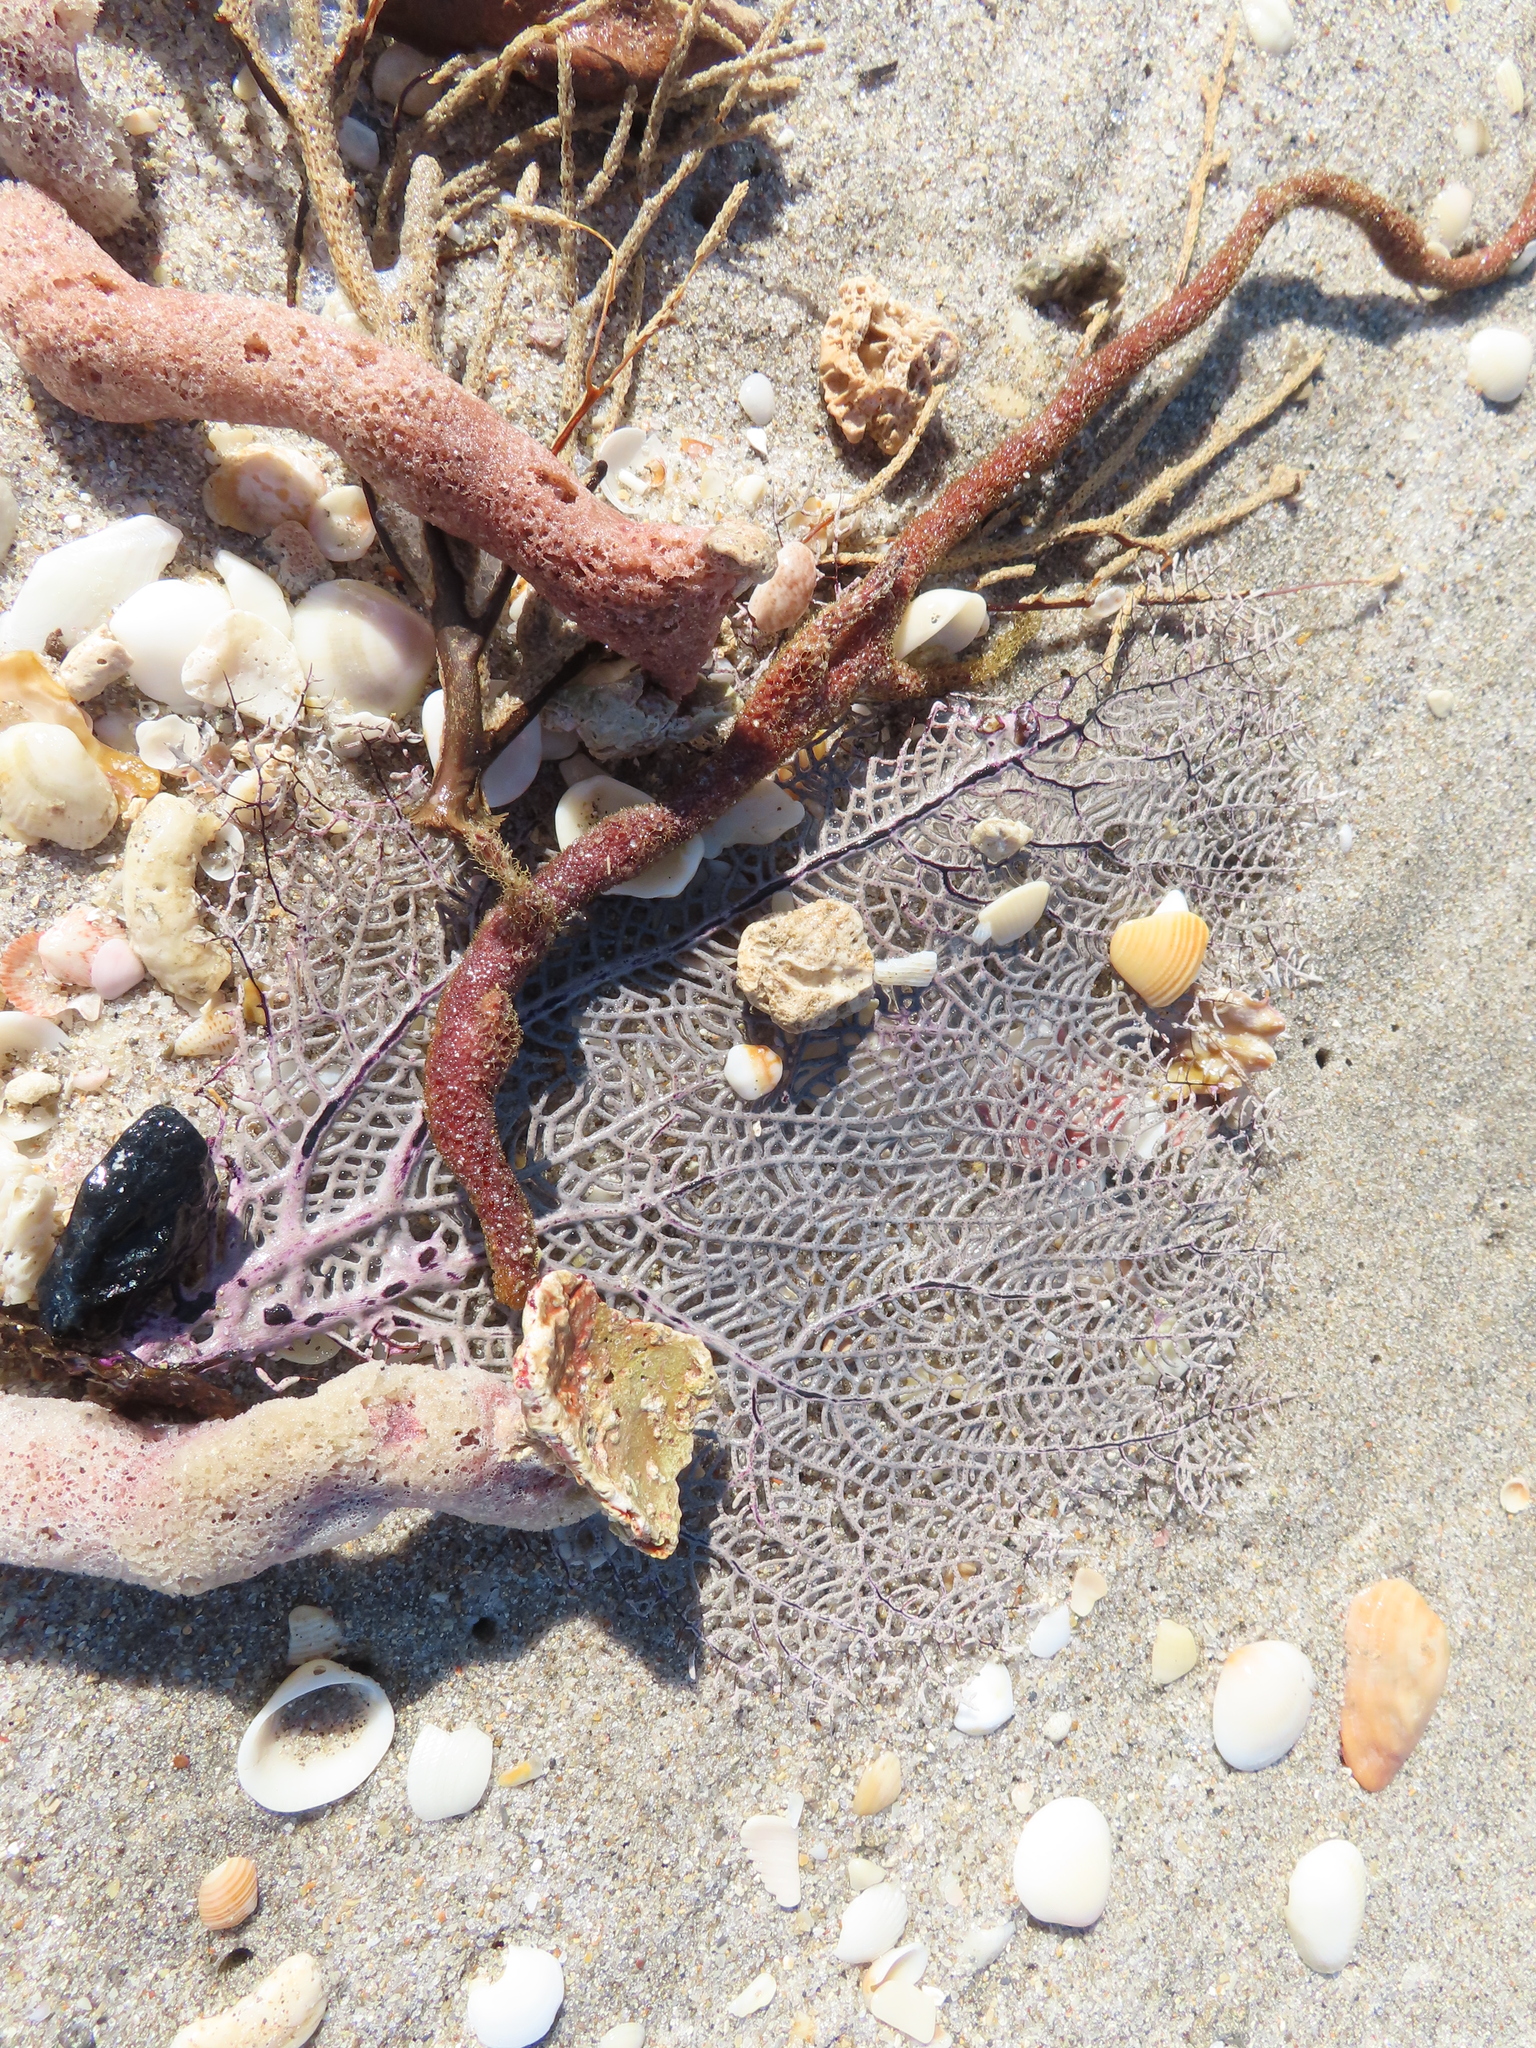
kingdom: Animalia
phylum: Cnidaria
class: Anthozoa
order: Malacalcyonacea
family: Gorgoniidae
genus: Gorgonia
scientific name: Gorgonia ventalina
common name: Common sea fan
